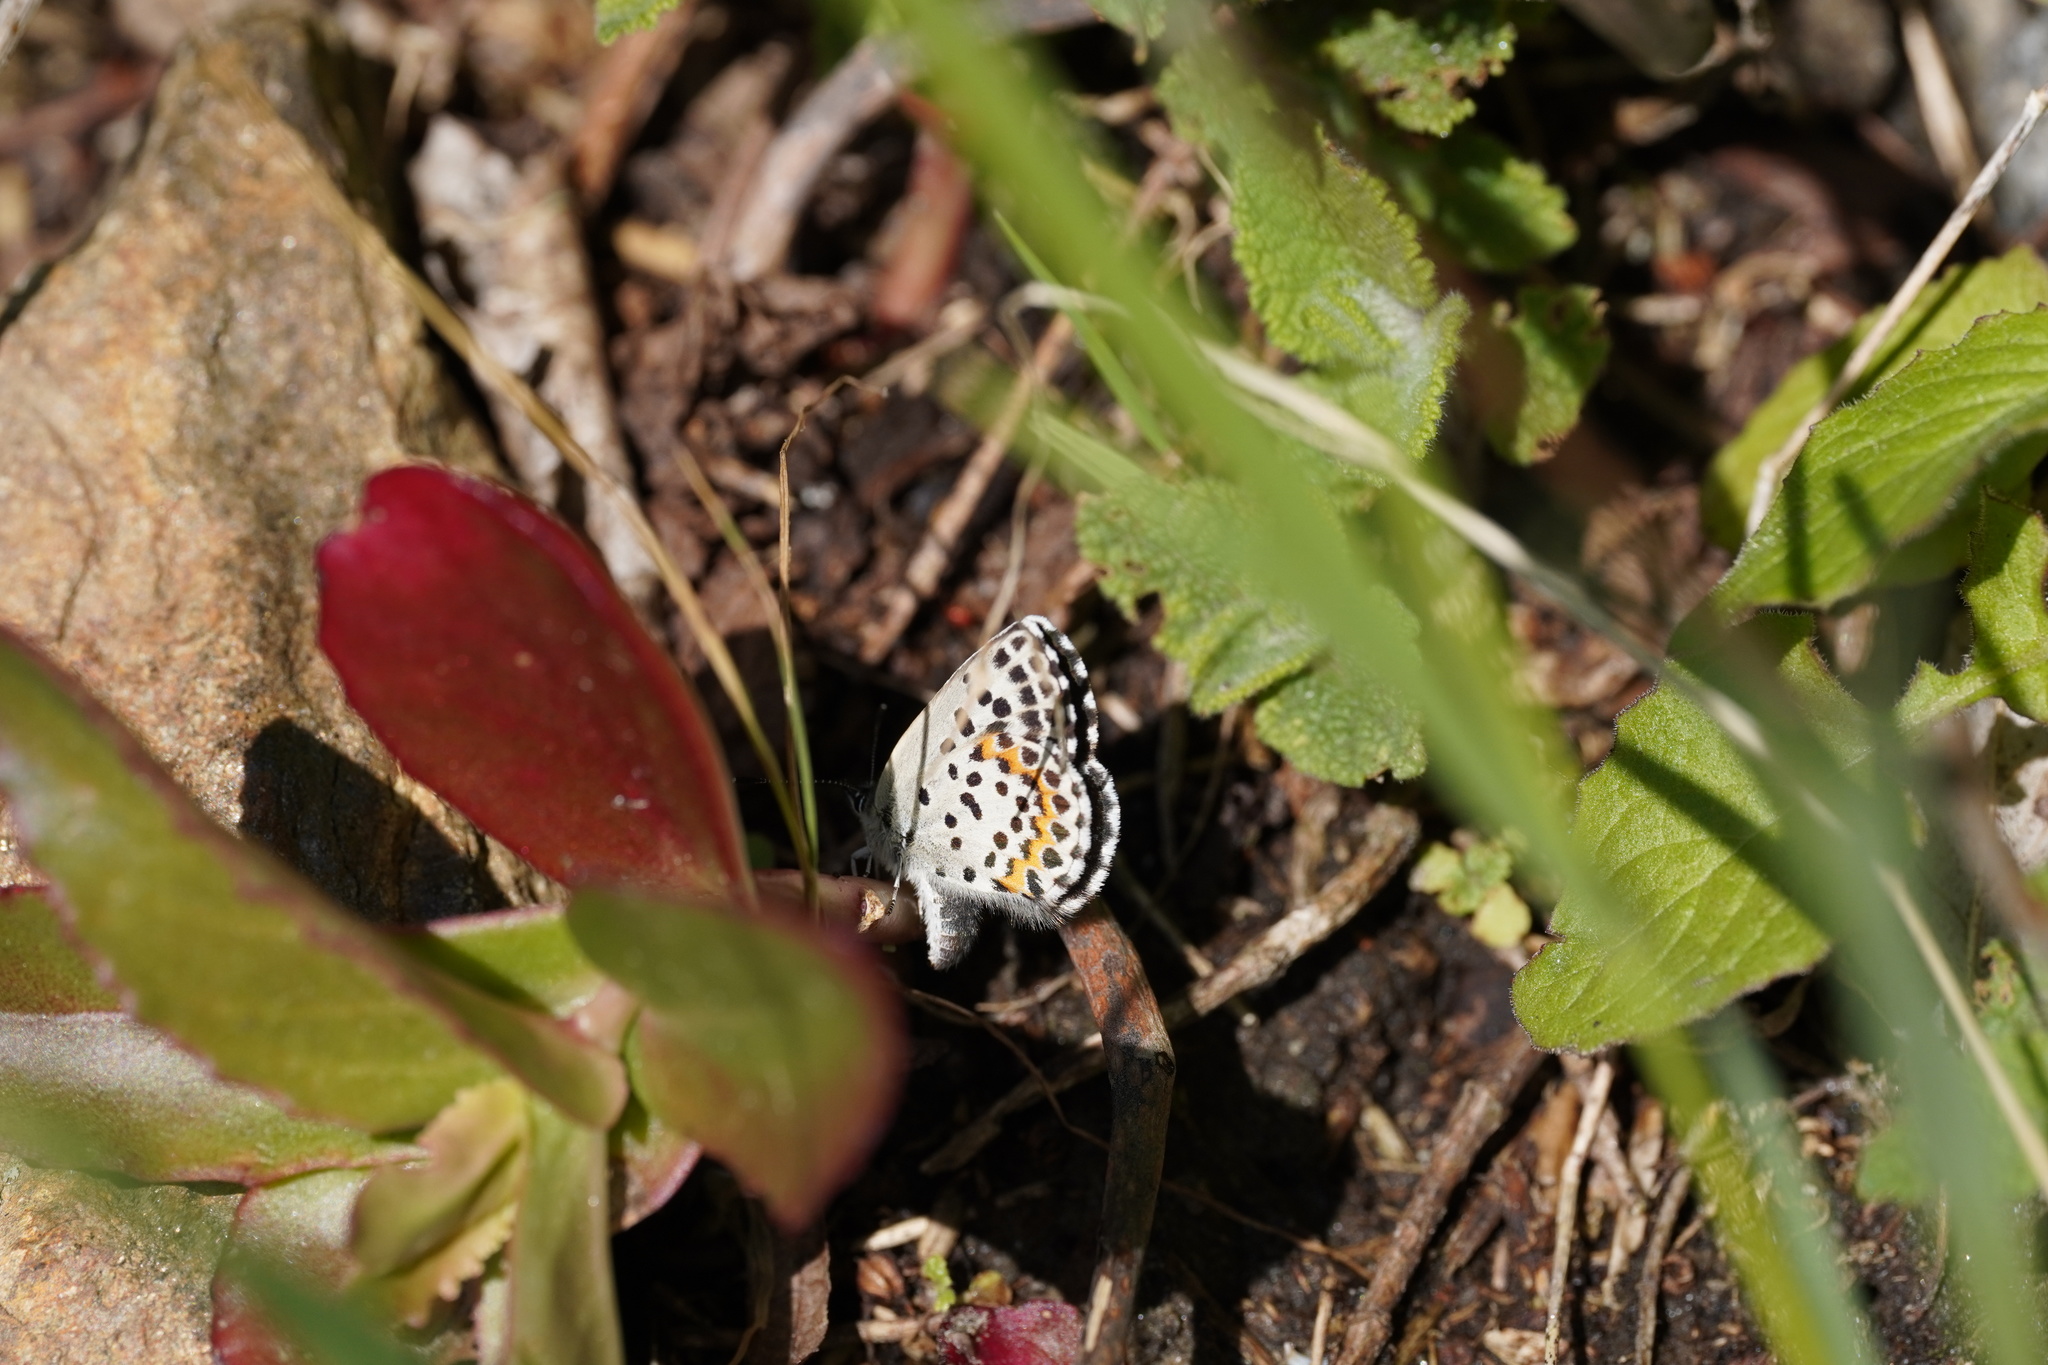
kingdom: Animalia
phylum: Arthropoda
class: Insecta
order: Lepidoptera
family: Lycaenidae
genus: Scolitantides
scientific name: Scolitantides orion
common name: Chequered blue
